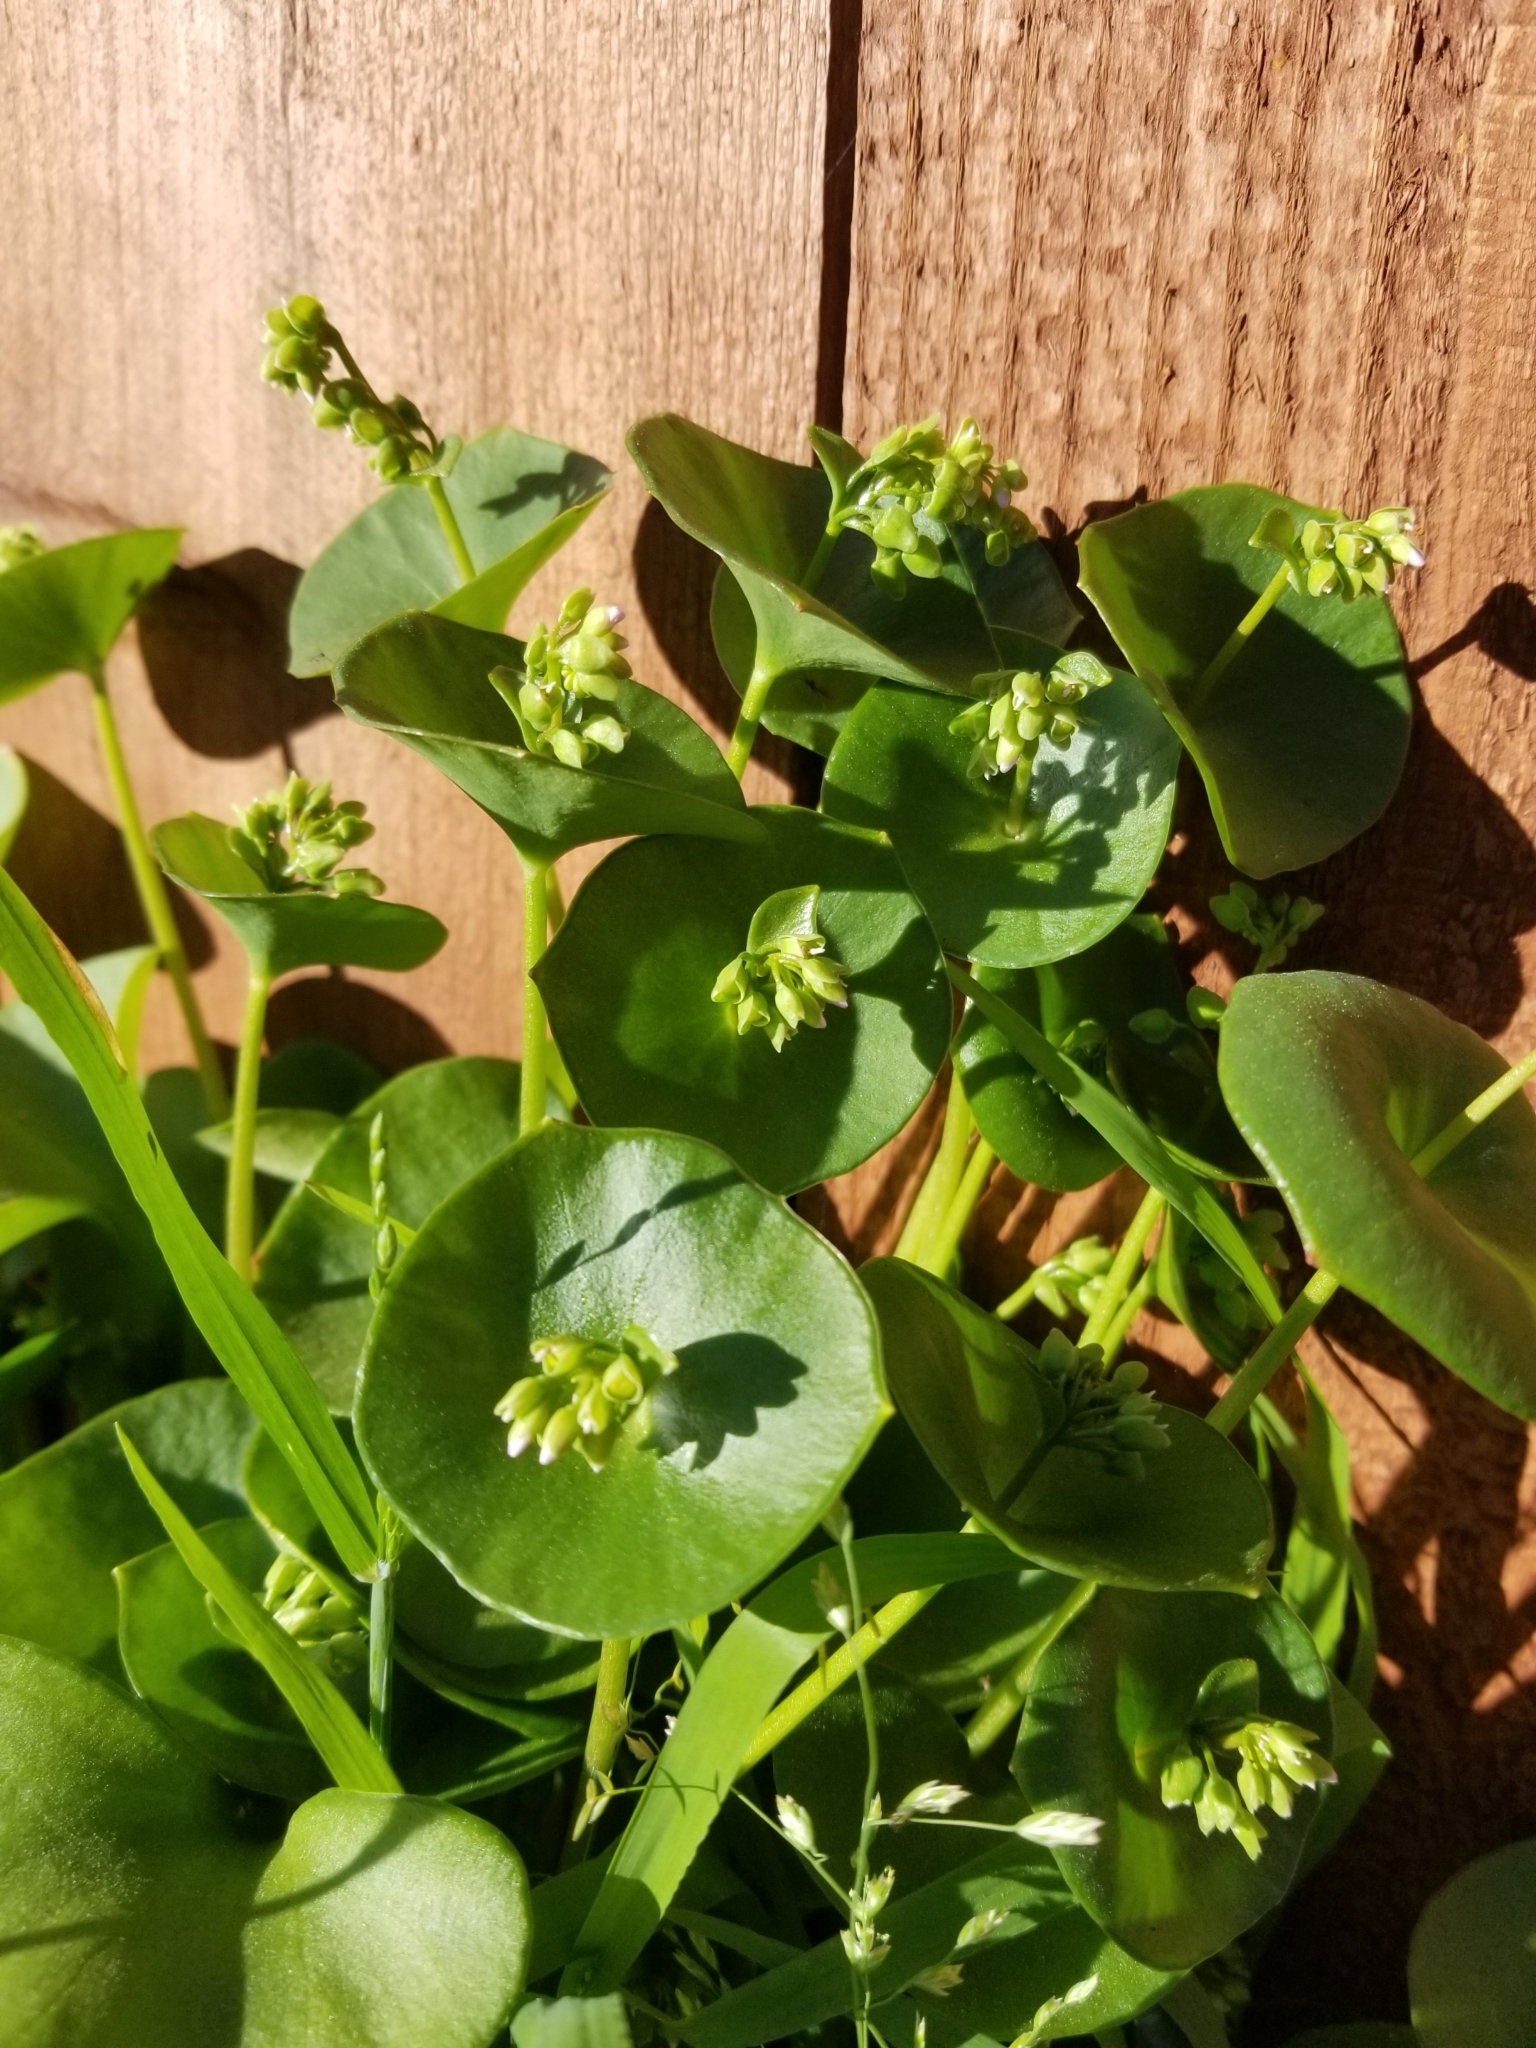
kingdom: Plantae
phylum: Tracheophyta
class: Magnoliopsida
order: Caryophyllales
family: Montiaceae
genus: Claytonia
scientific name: Claytonia perfoliata
